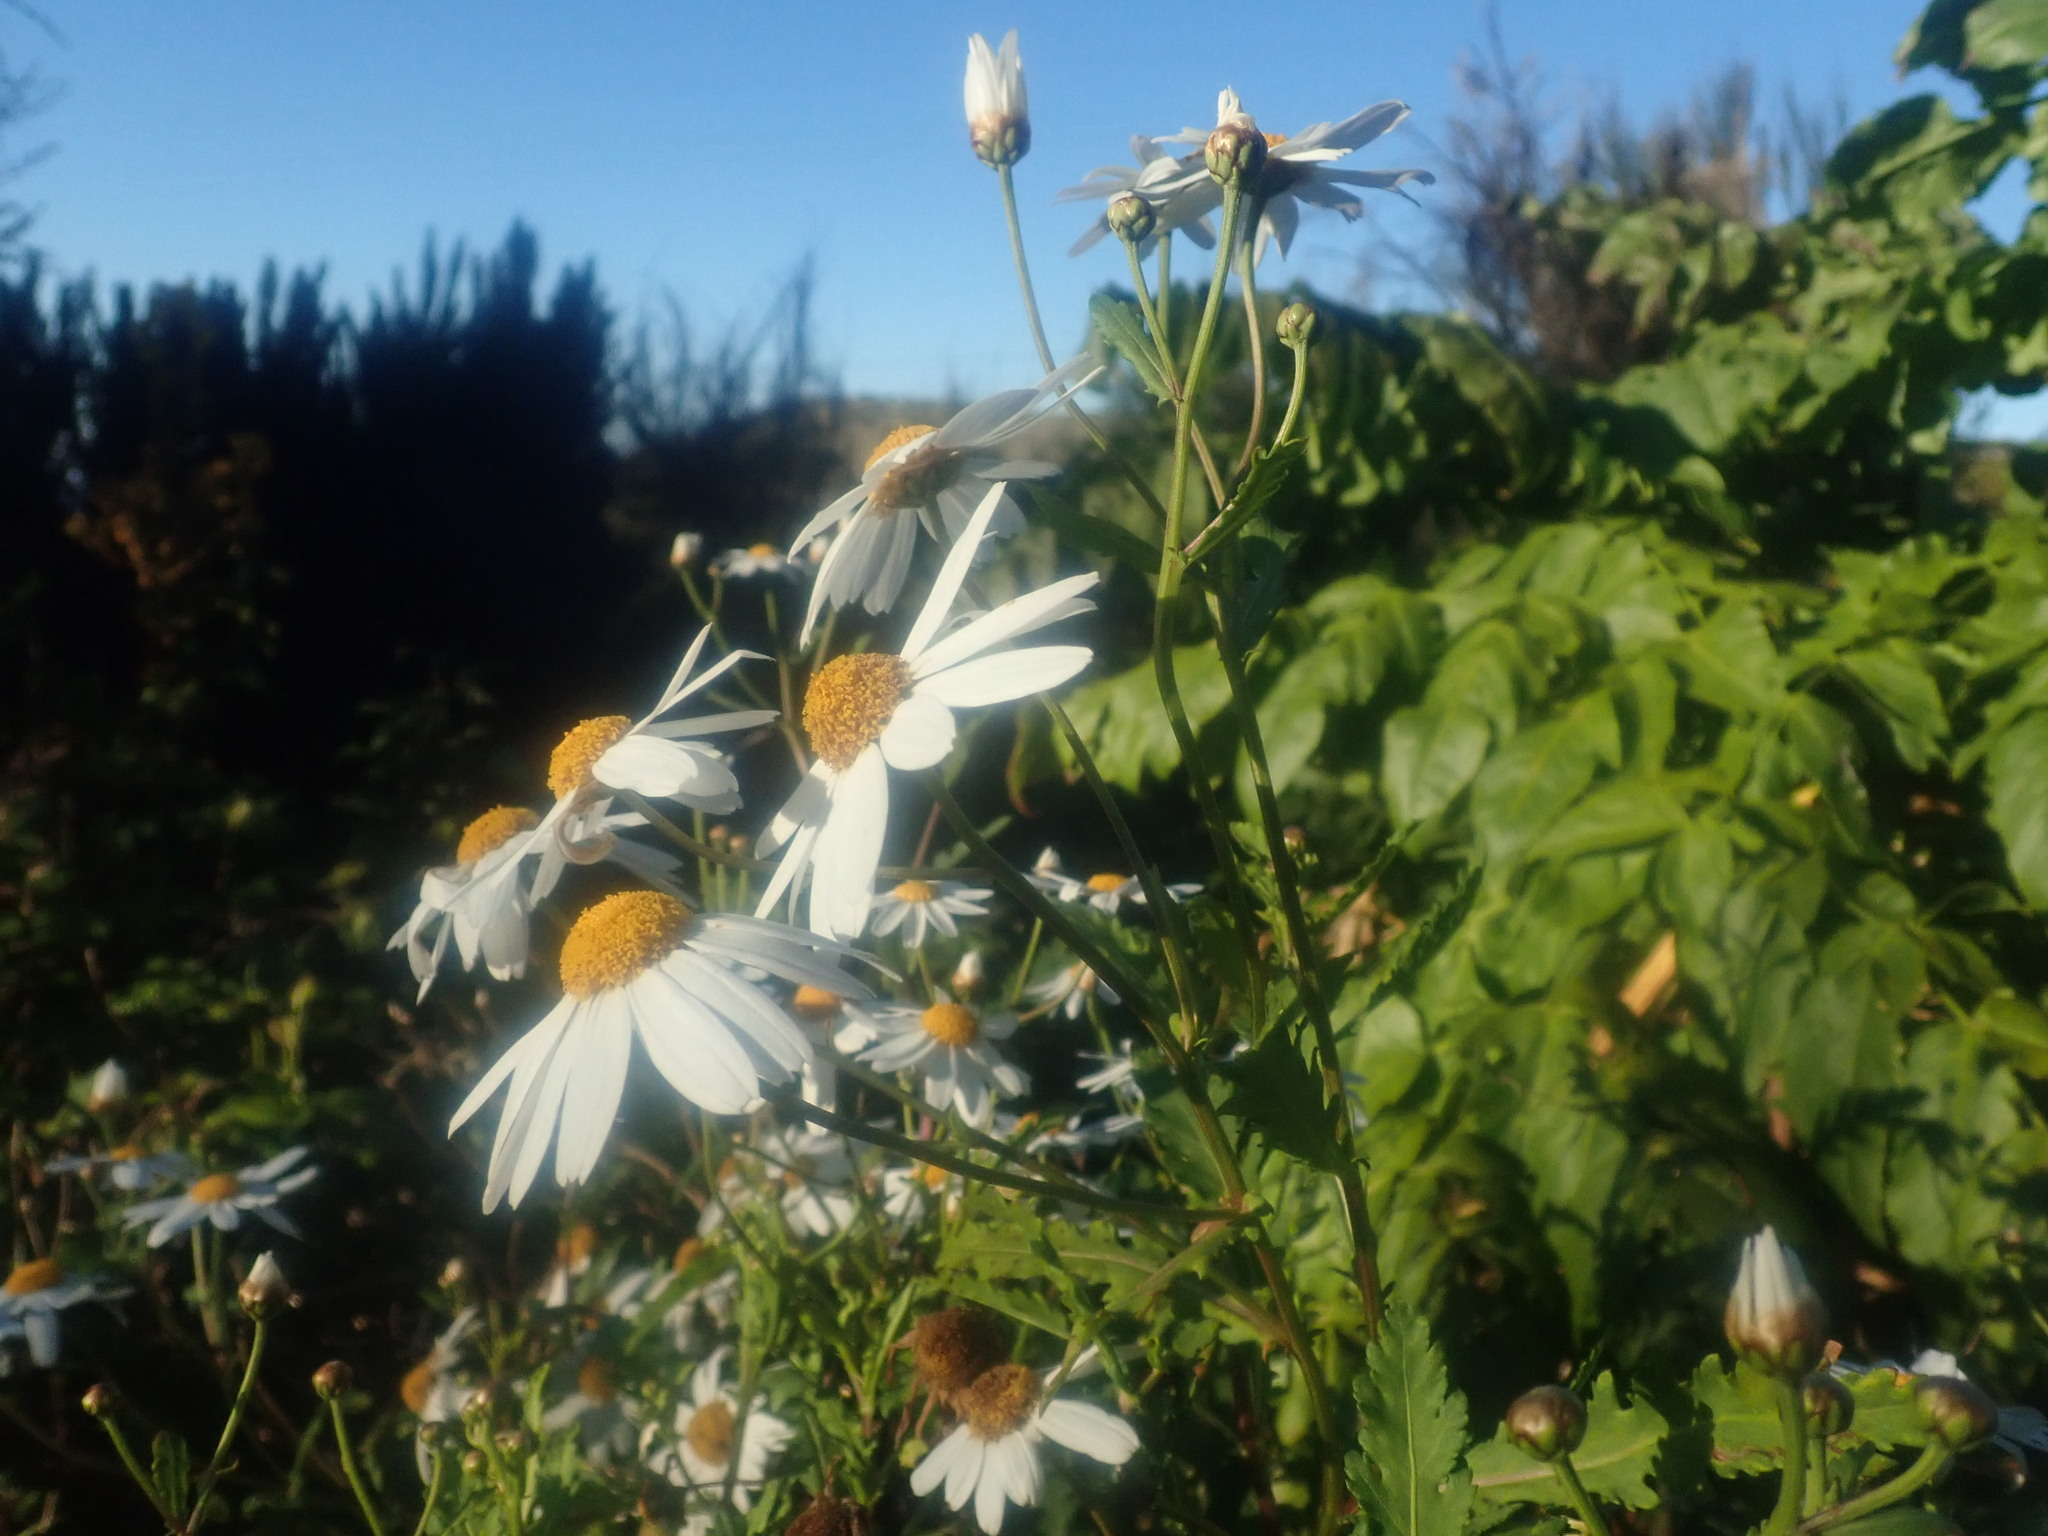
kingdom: Plantae
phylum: Tracheophyta
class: Magnoliopsida
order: Asterales
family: Asteraceae
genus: Argyranthemum
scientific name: Argyranthemum pinnatifidum
